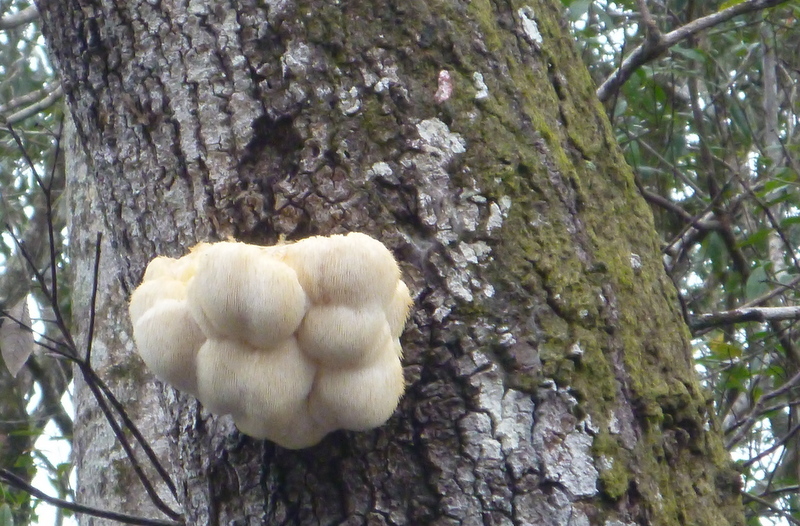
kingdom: Fungi
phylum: Basidiomycota
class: Agaricomycetes
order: Russulales
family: Hericiaceae
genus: Hericium
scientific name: Hericium erinaceus
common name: Bearded tooth
